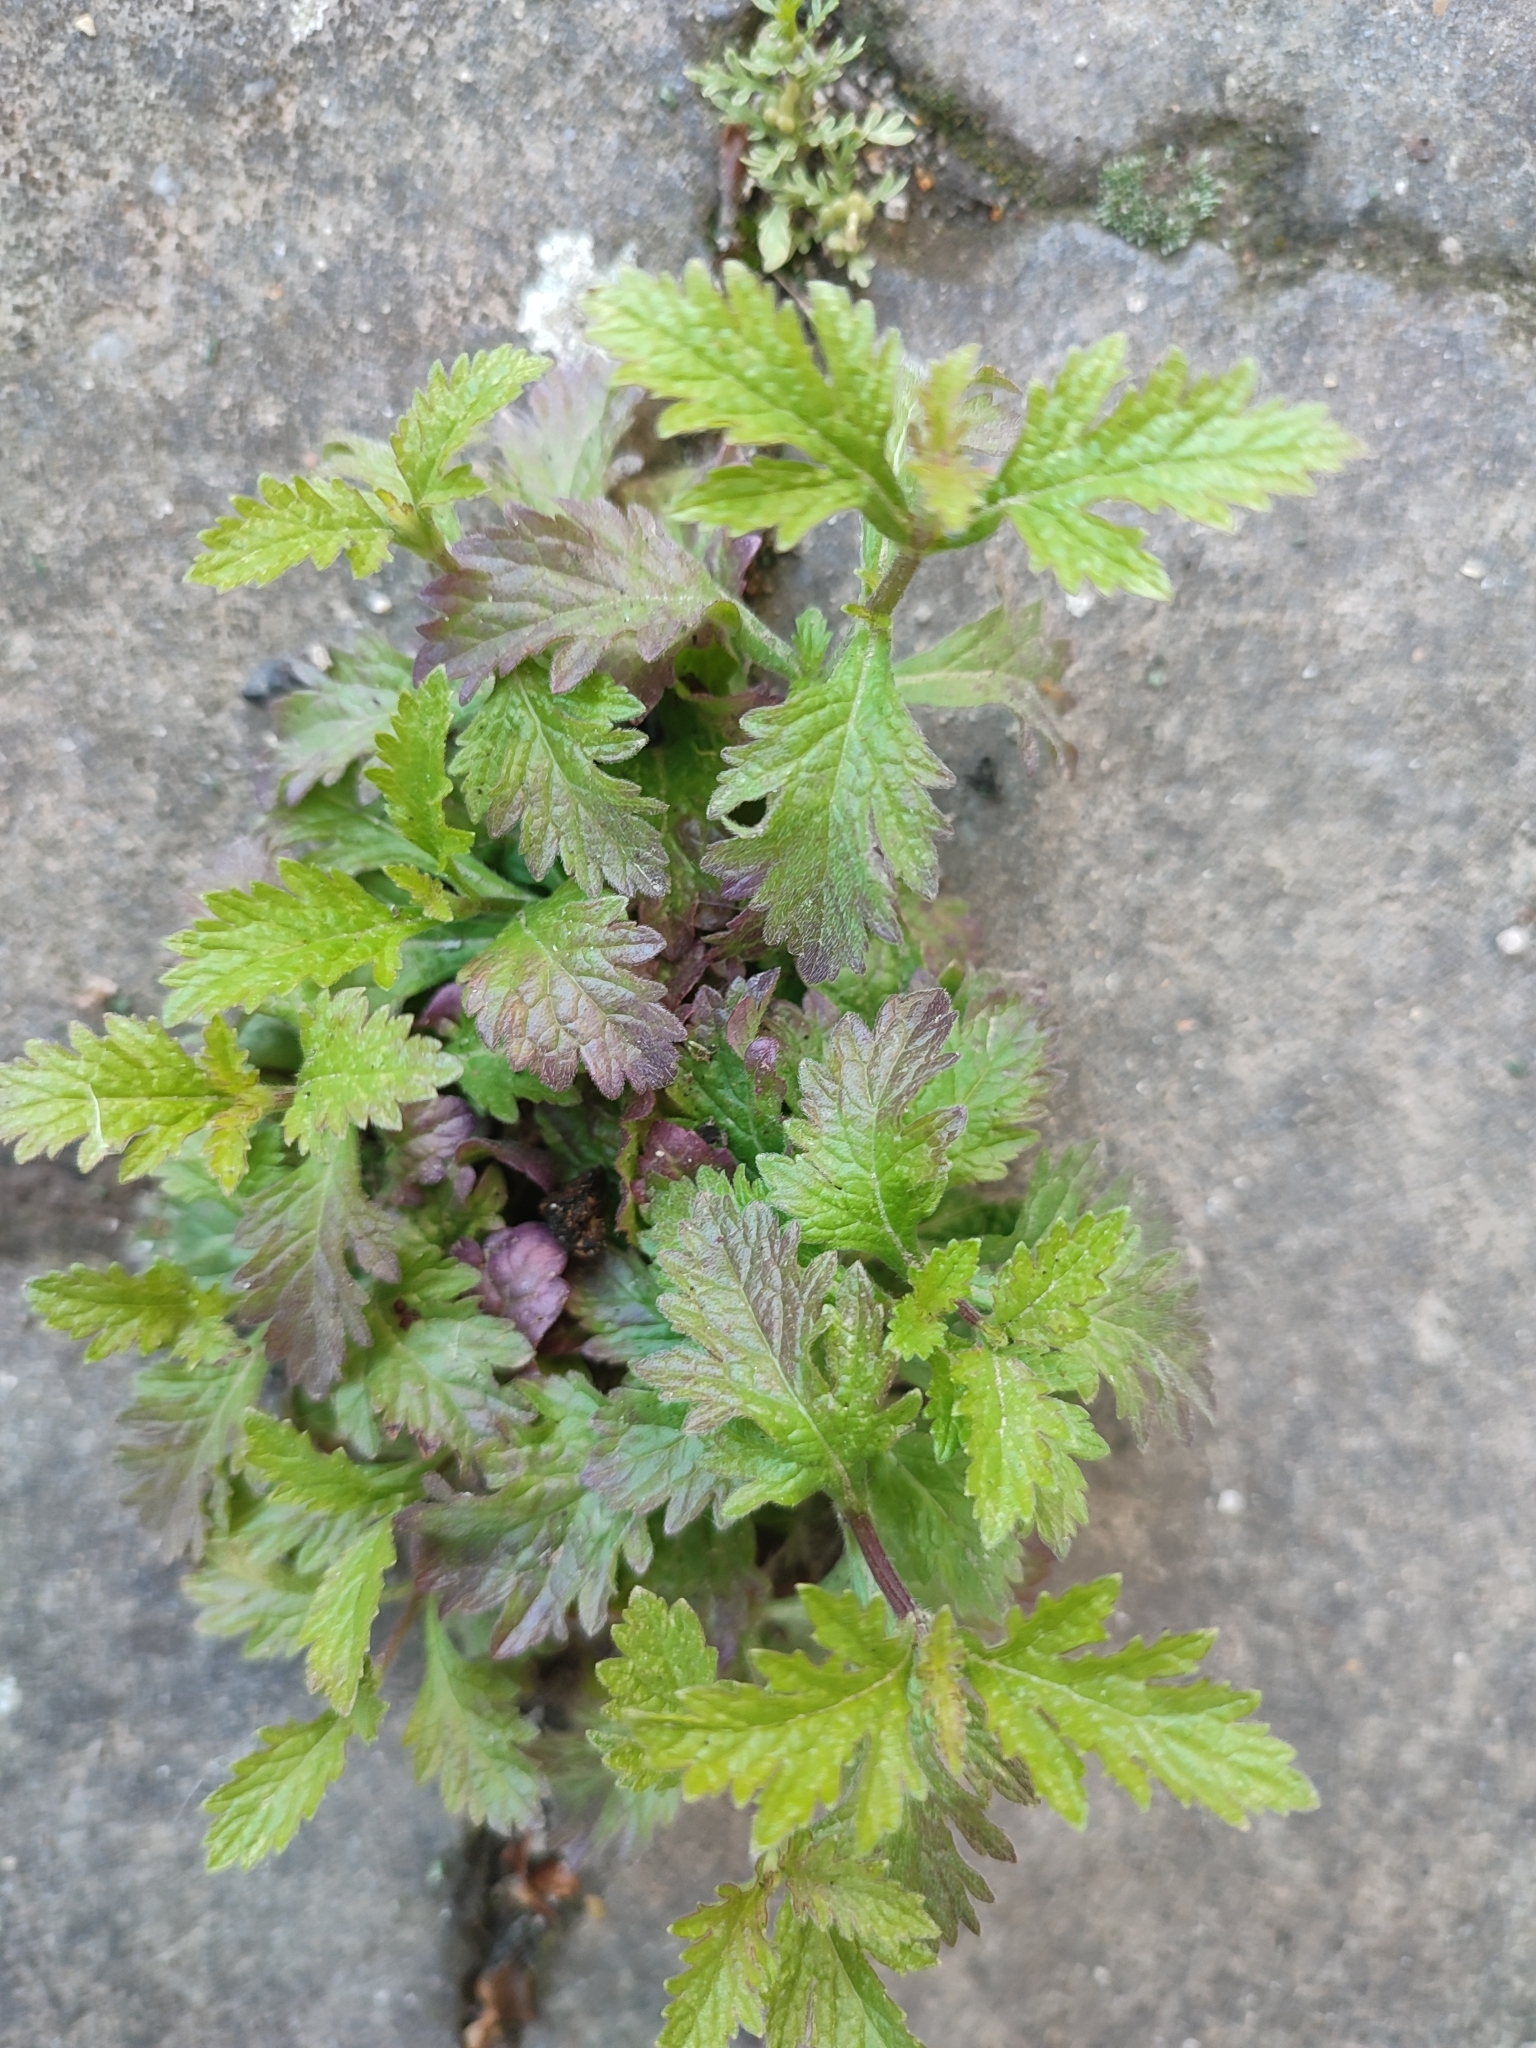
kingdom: Plantae
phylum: Tracheophyta
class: Magnoliopsida
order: Lamiales
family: Verbenaceae
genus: Verbena
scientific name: Verbena officinalis
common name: Vervain
